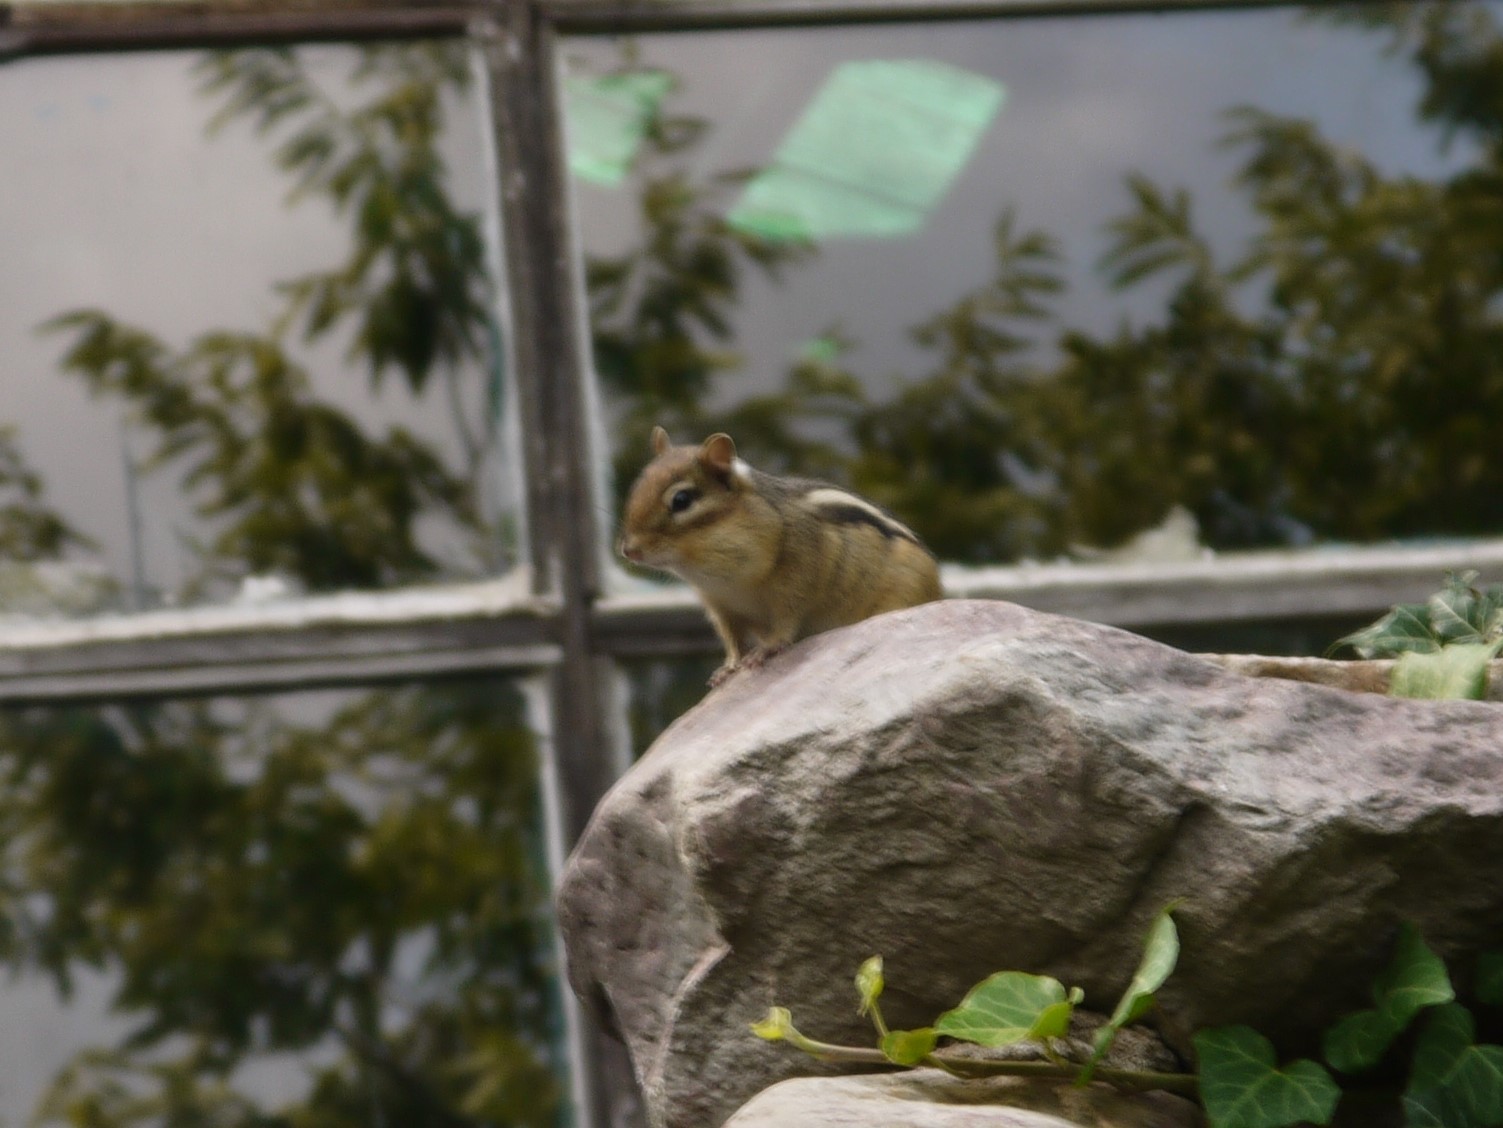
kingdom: Animalia
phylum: Chordata
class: Mammalia
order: Rodentia
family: Sciuridae
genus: Tamias
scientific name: Tamias striatus
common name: Eastern chipmunk
